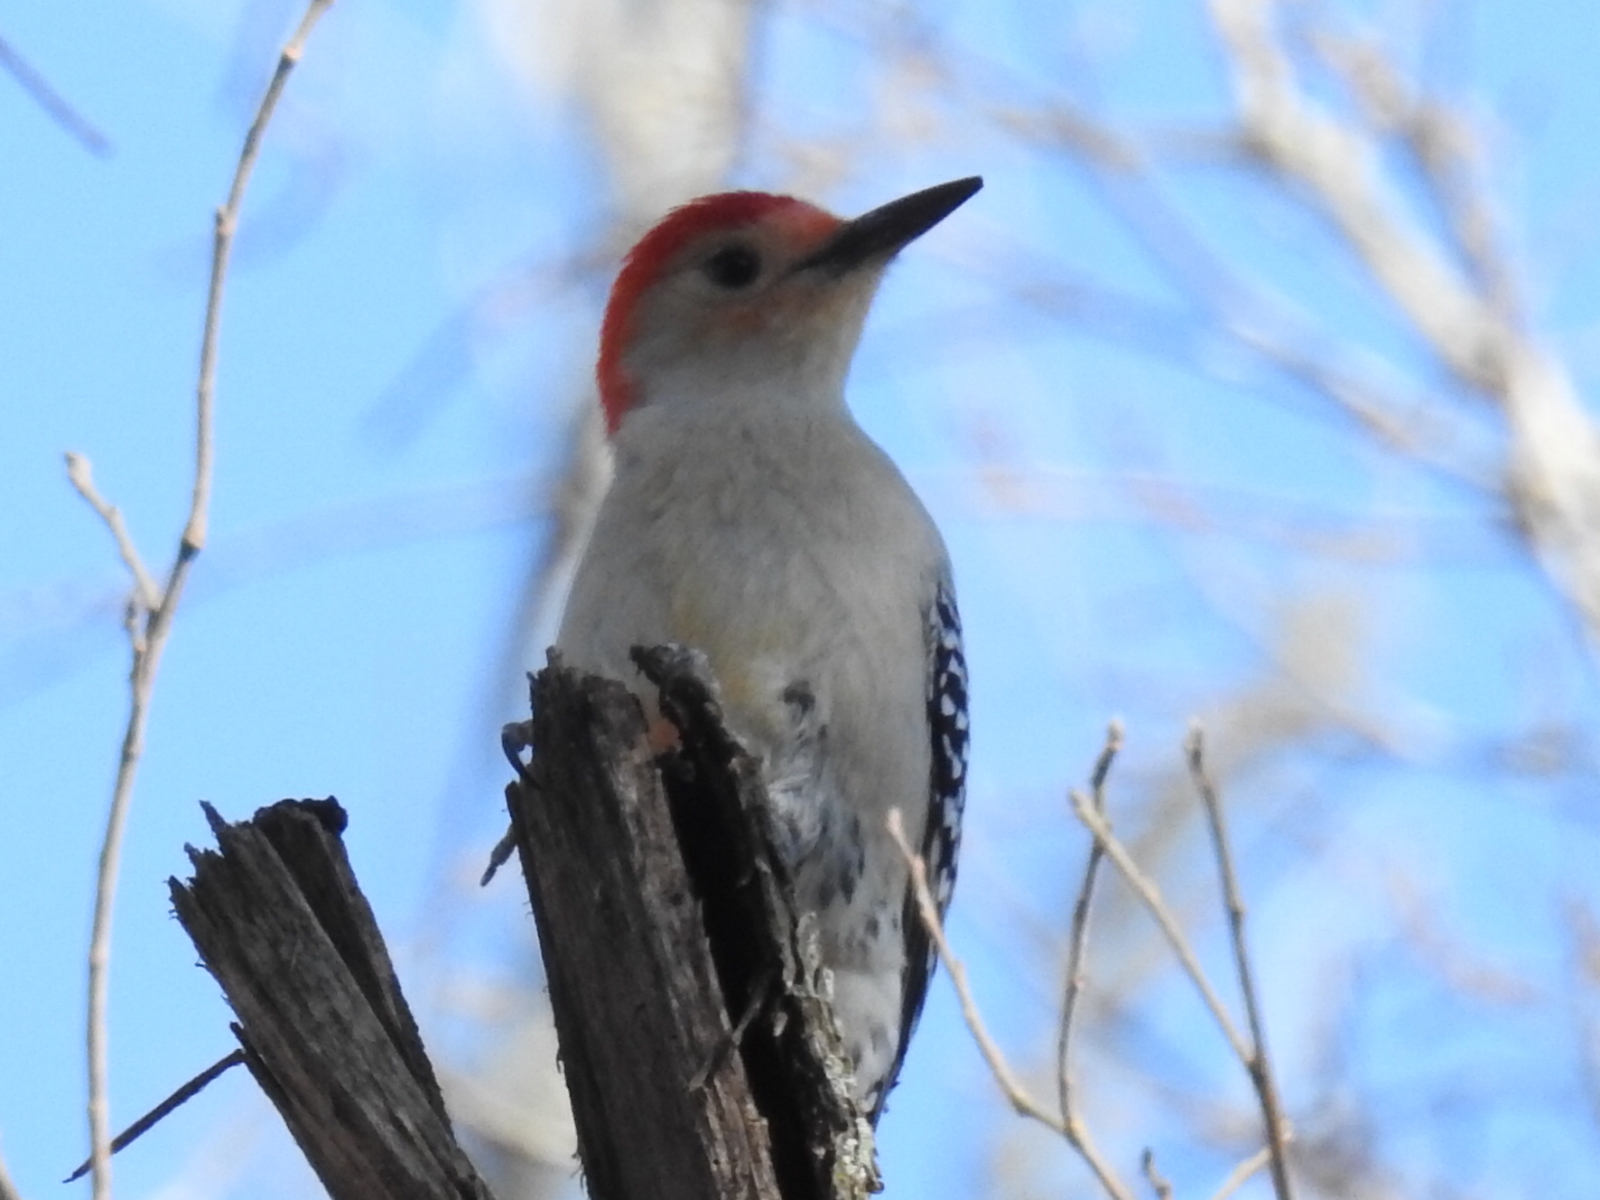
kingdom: Animalia
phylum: Chordata
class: Aves
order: Piciformes
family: Picidae
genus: Melanerpes
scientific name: Melanerpes carolinus
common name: Red-bellied woodpecker
